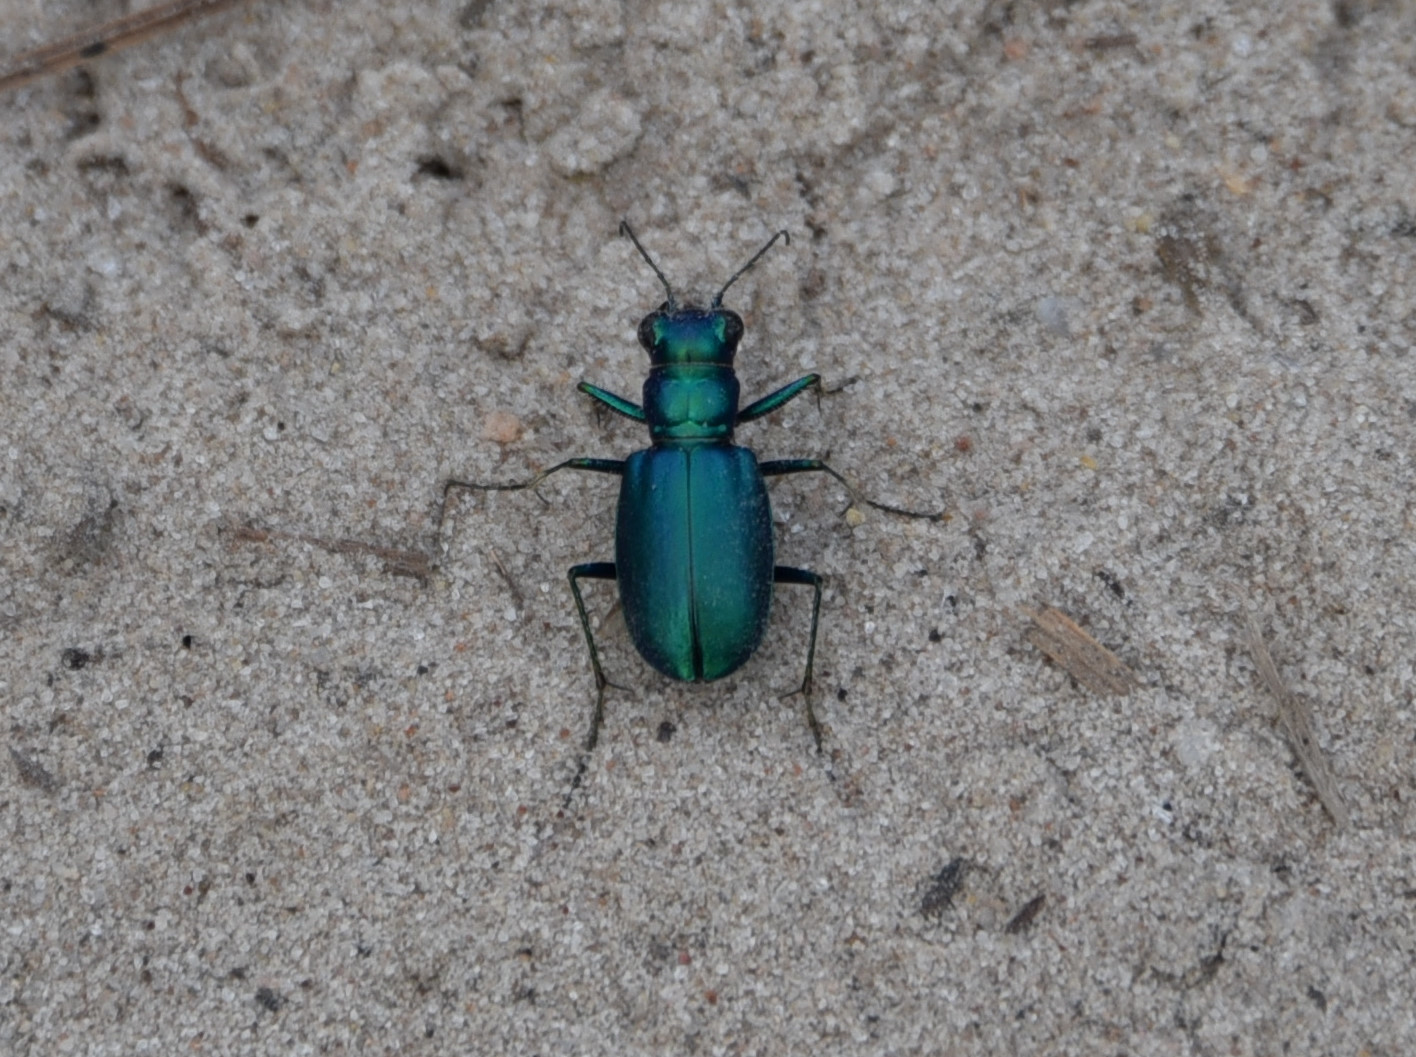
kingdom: Animalia
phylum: Arthropoda
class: Insecta
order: Coleoptera
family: Carabidae
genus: Cicindela
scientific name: Cicindela scutellaris
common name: Festive tiger beetle
